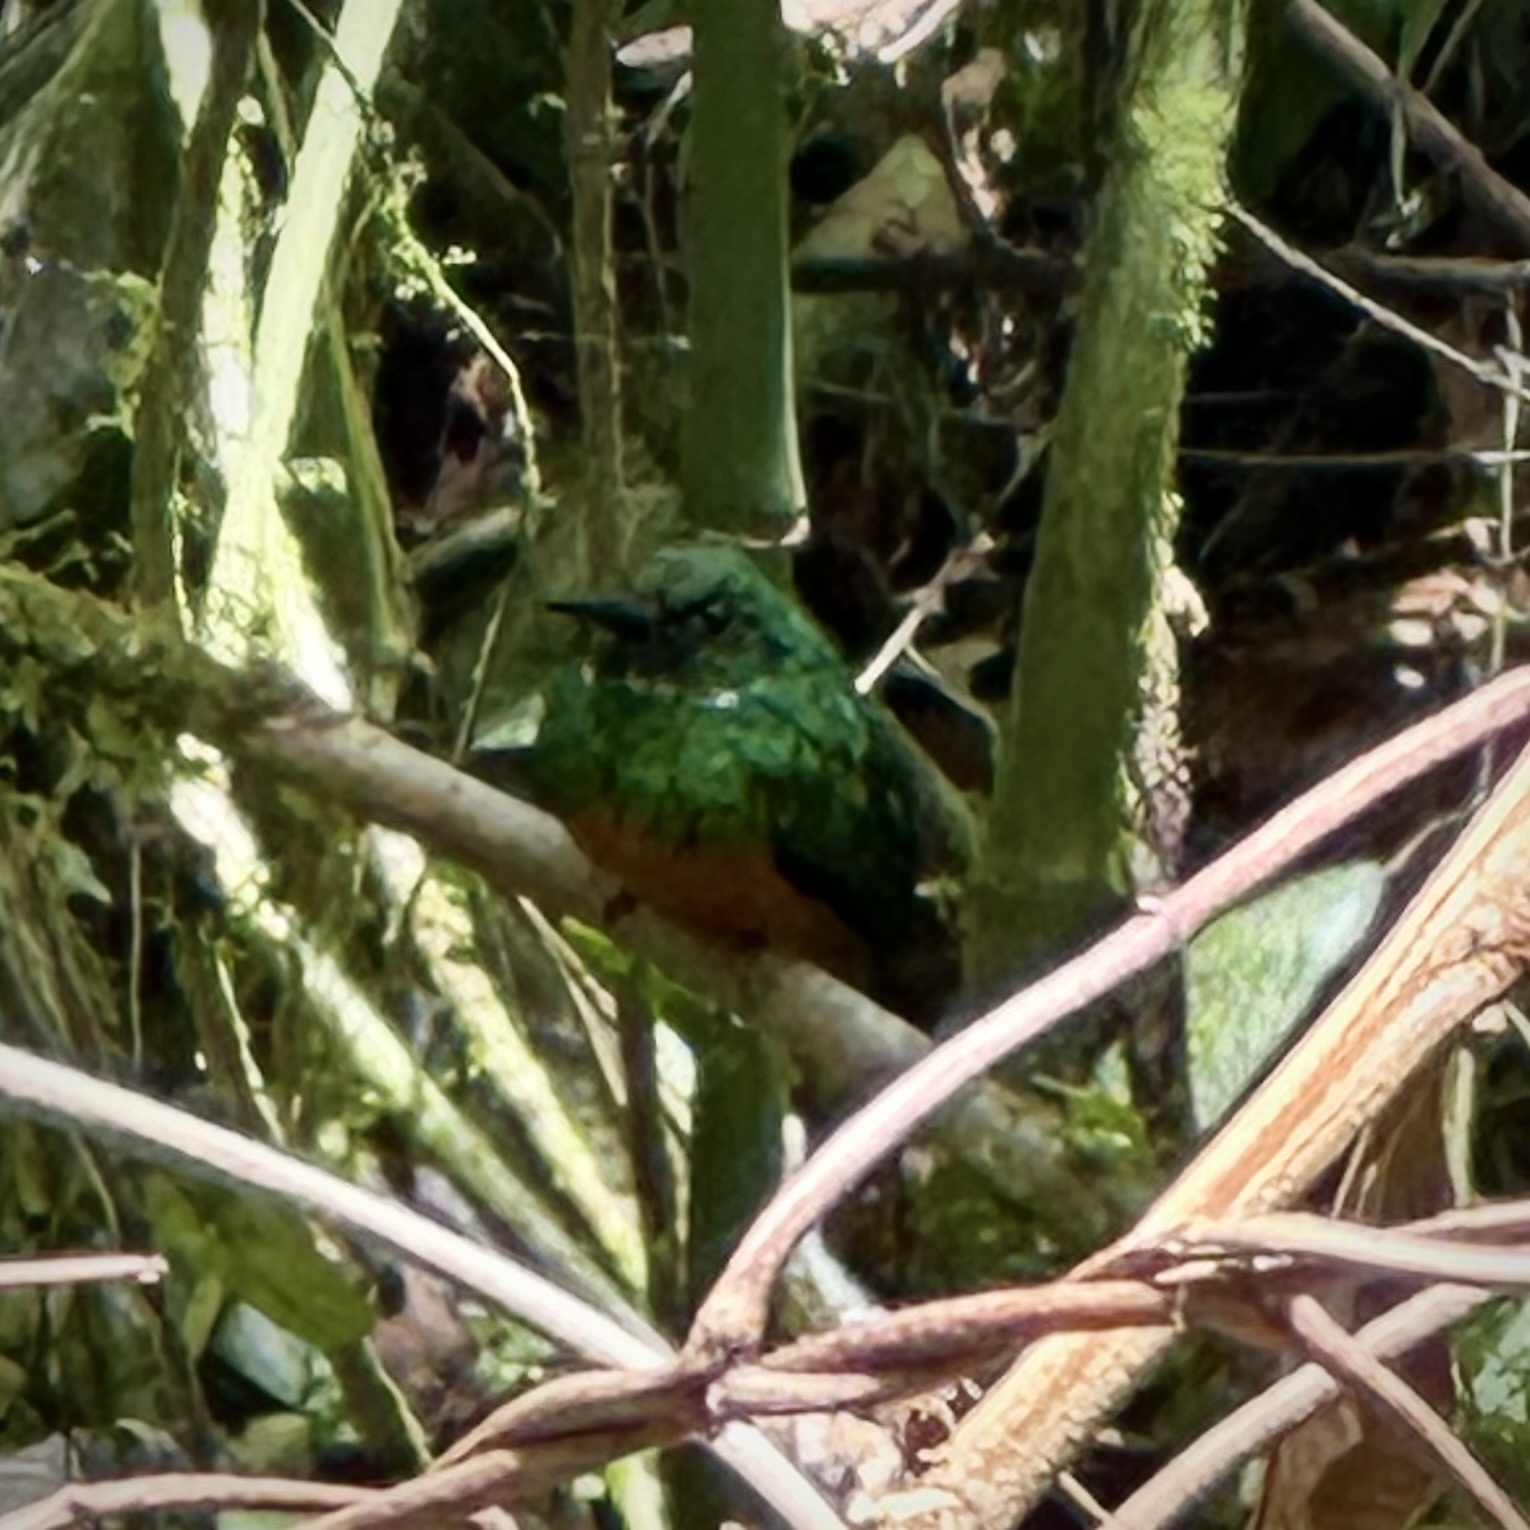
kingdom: Animalia
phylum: Chordata
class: Aves
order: Piciformes
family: Galbulidae
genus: Galbula
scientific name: Galbula ruficauda
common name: Rufous-tailed jacamar
